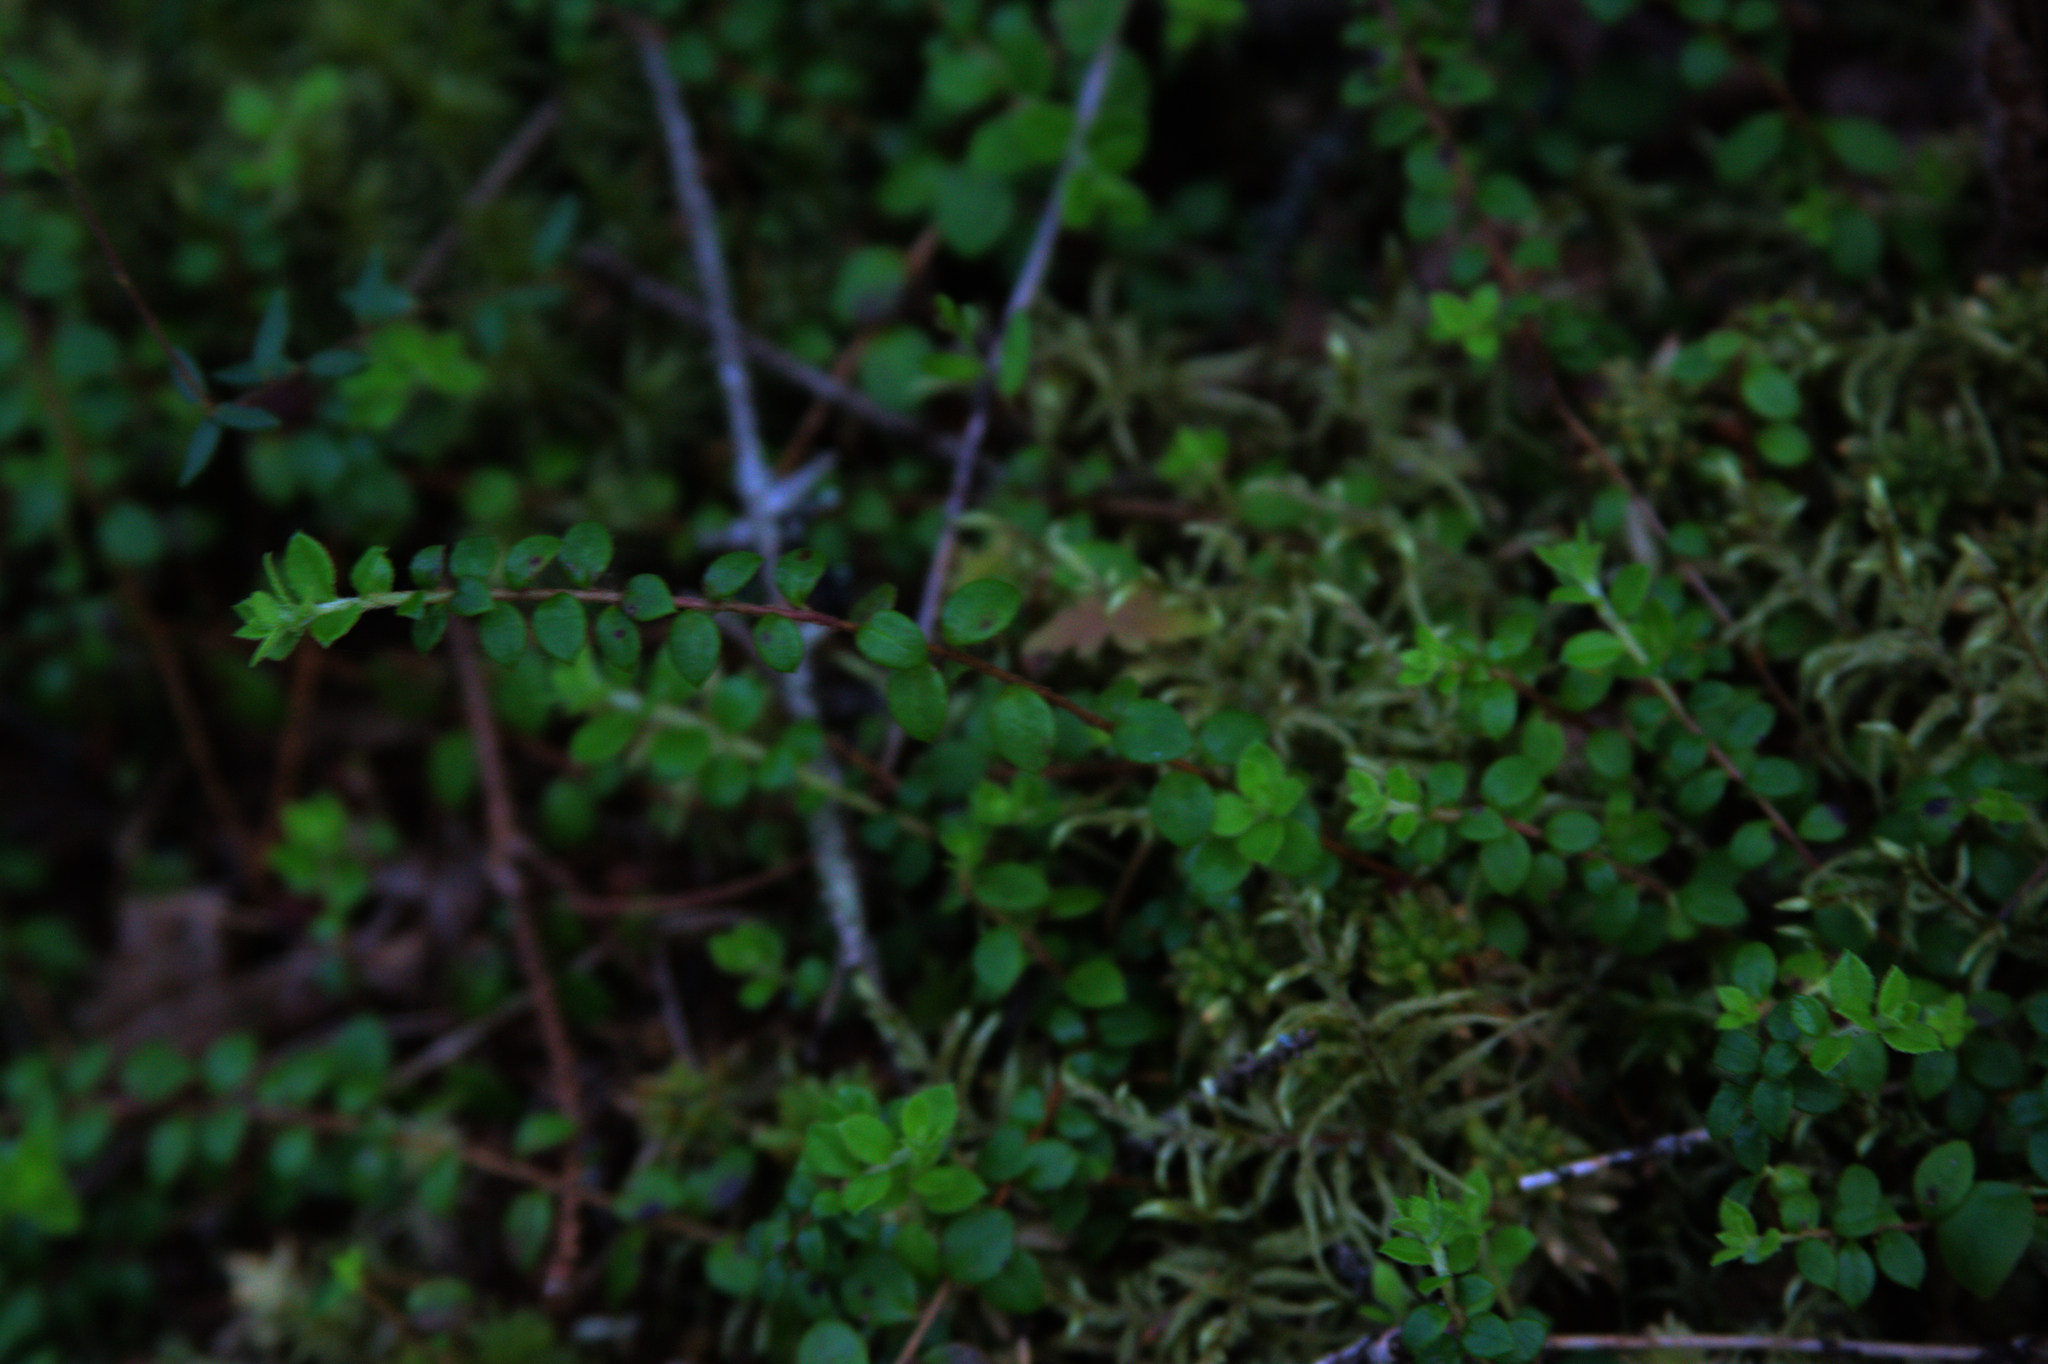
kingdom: Plantae
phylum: Tracheophyta
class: Magnoliopsida
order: Ericales
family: Ericaceae
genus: Gaultheria
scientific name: Gaultheria hispidula
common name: Cancer wintergreen
